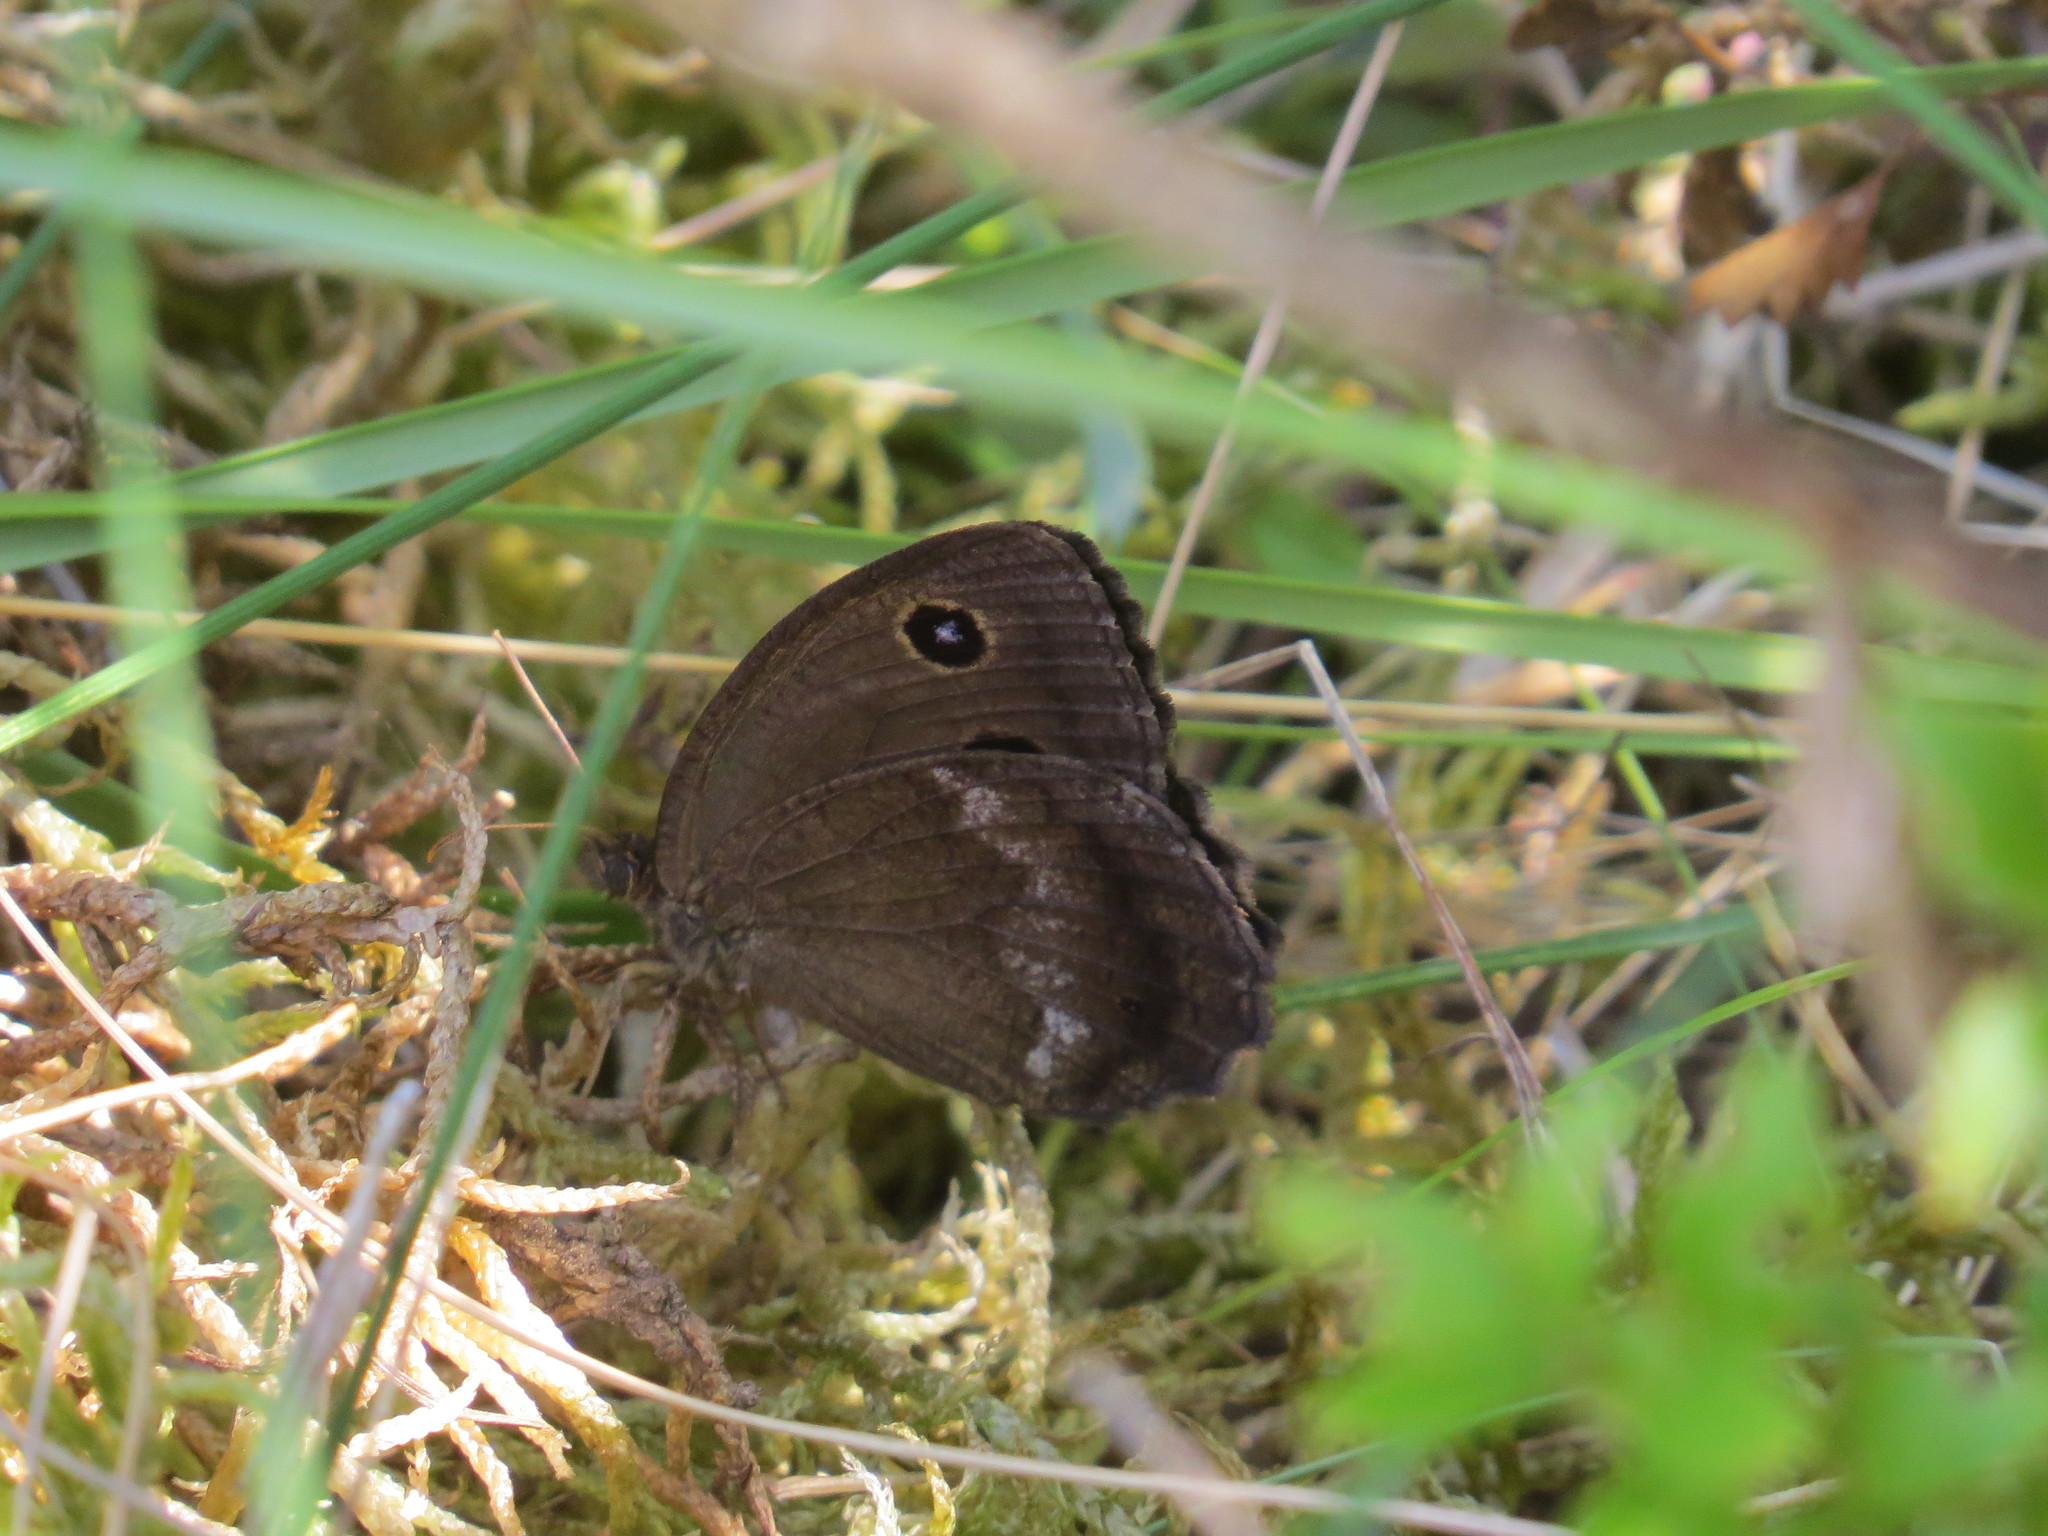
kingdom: Animalia
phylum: Arthropoda
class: Insecta
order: Lepidoptera
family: Nymphalidae
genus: Minois
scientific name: Minois dryas
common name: Dryad
